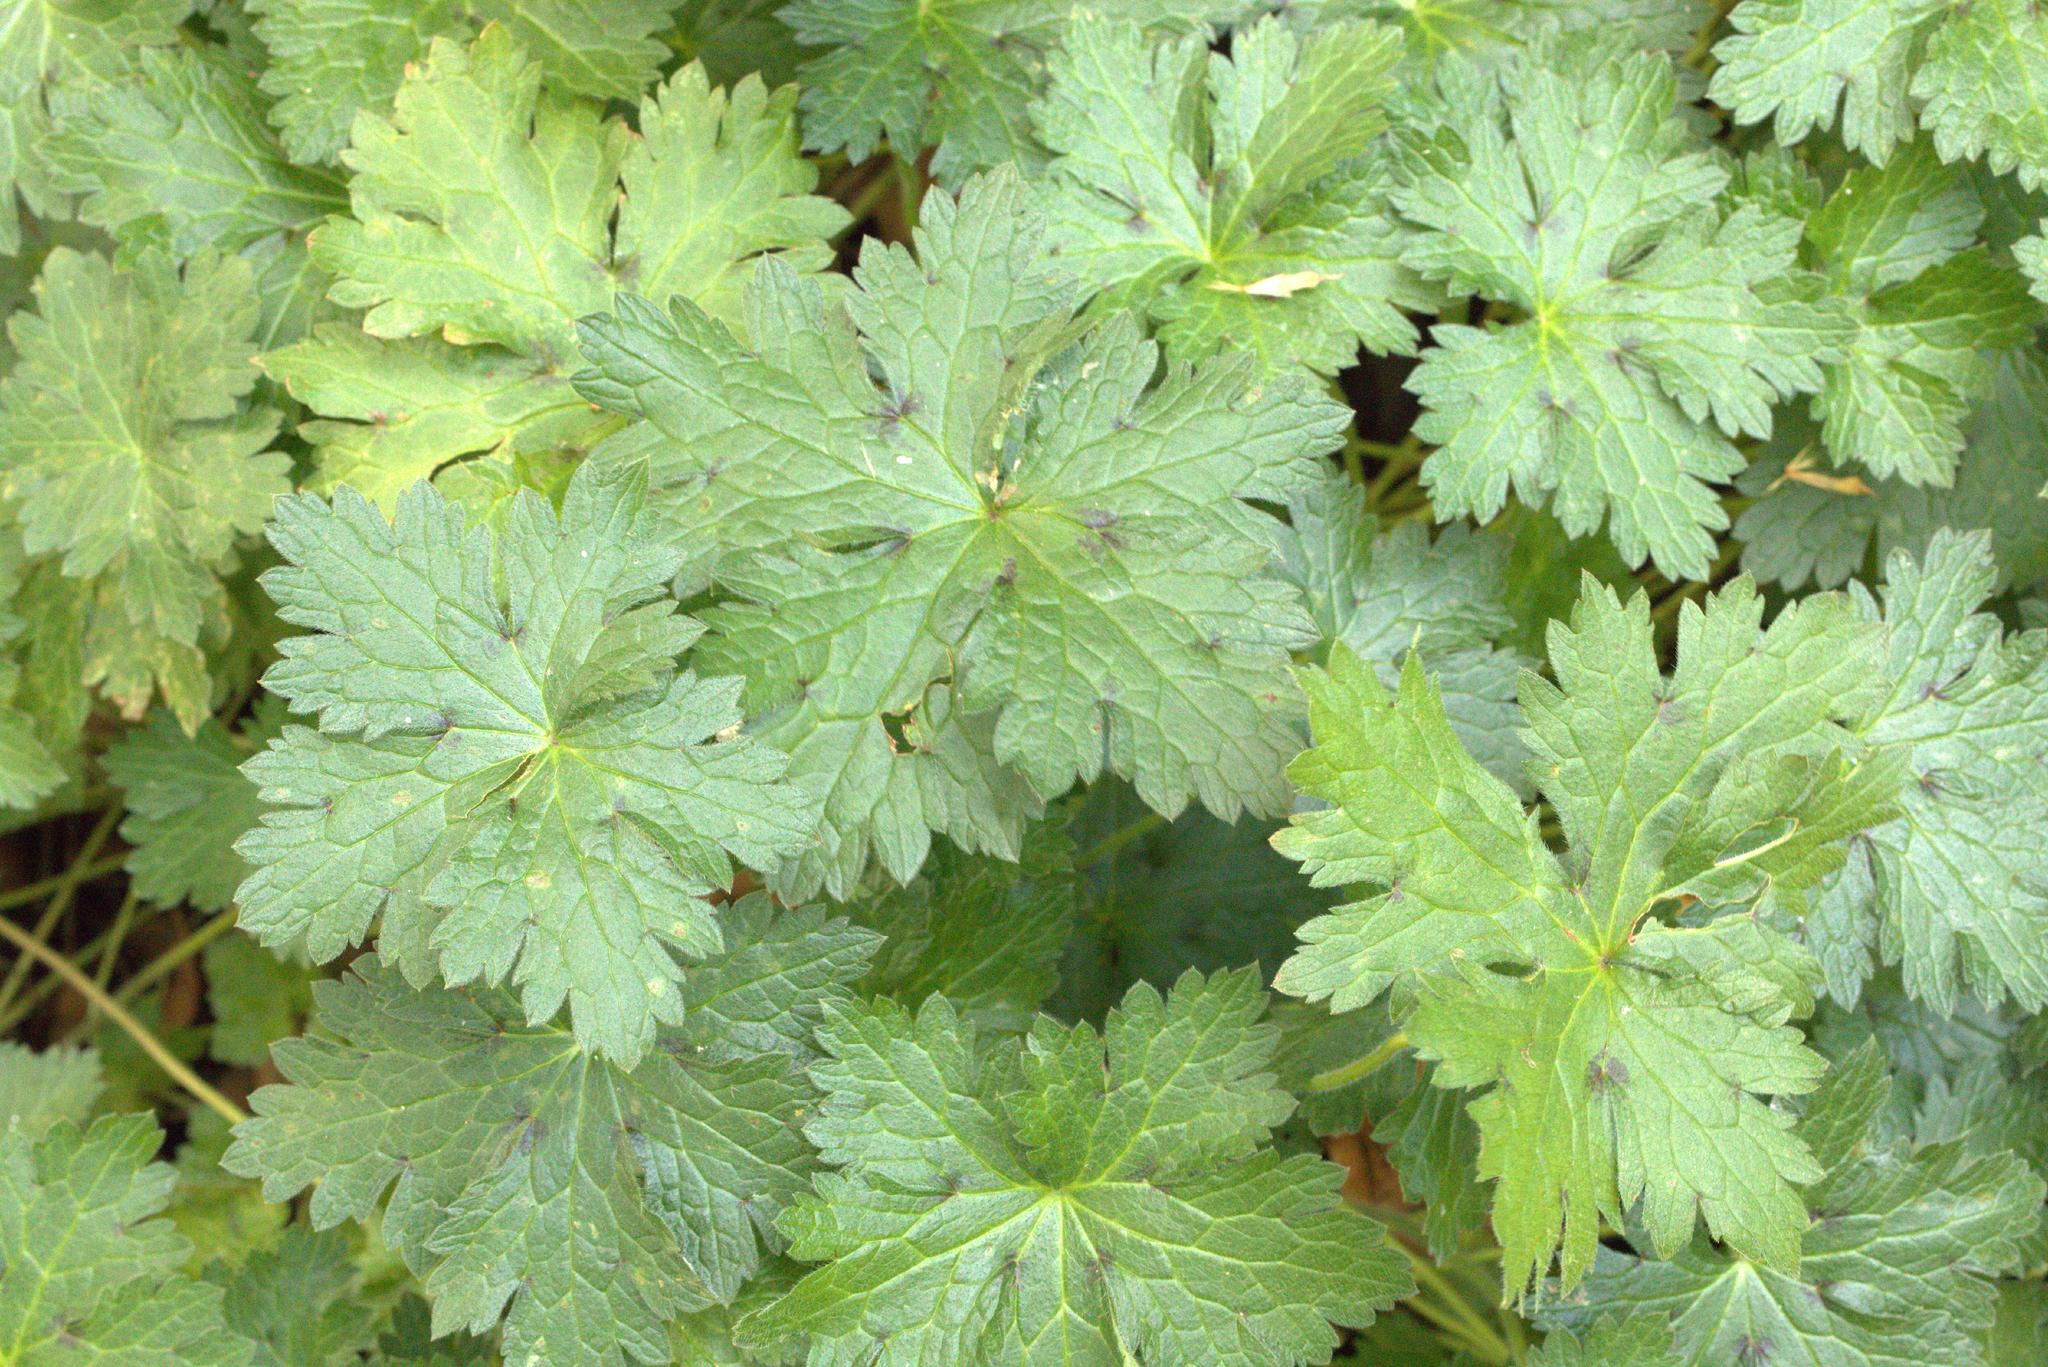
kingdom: Plantae
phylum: Tracheophyta
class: Magnoliopsida
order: Geraniales
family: Geraniaceae
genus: Geranium
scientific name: Geranium oxonianum
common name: Druce's crane's-bill
